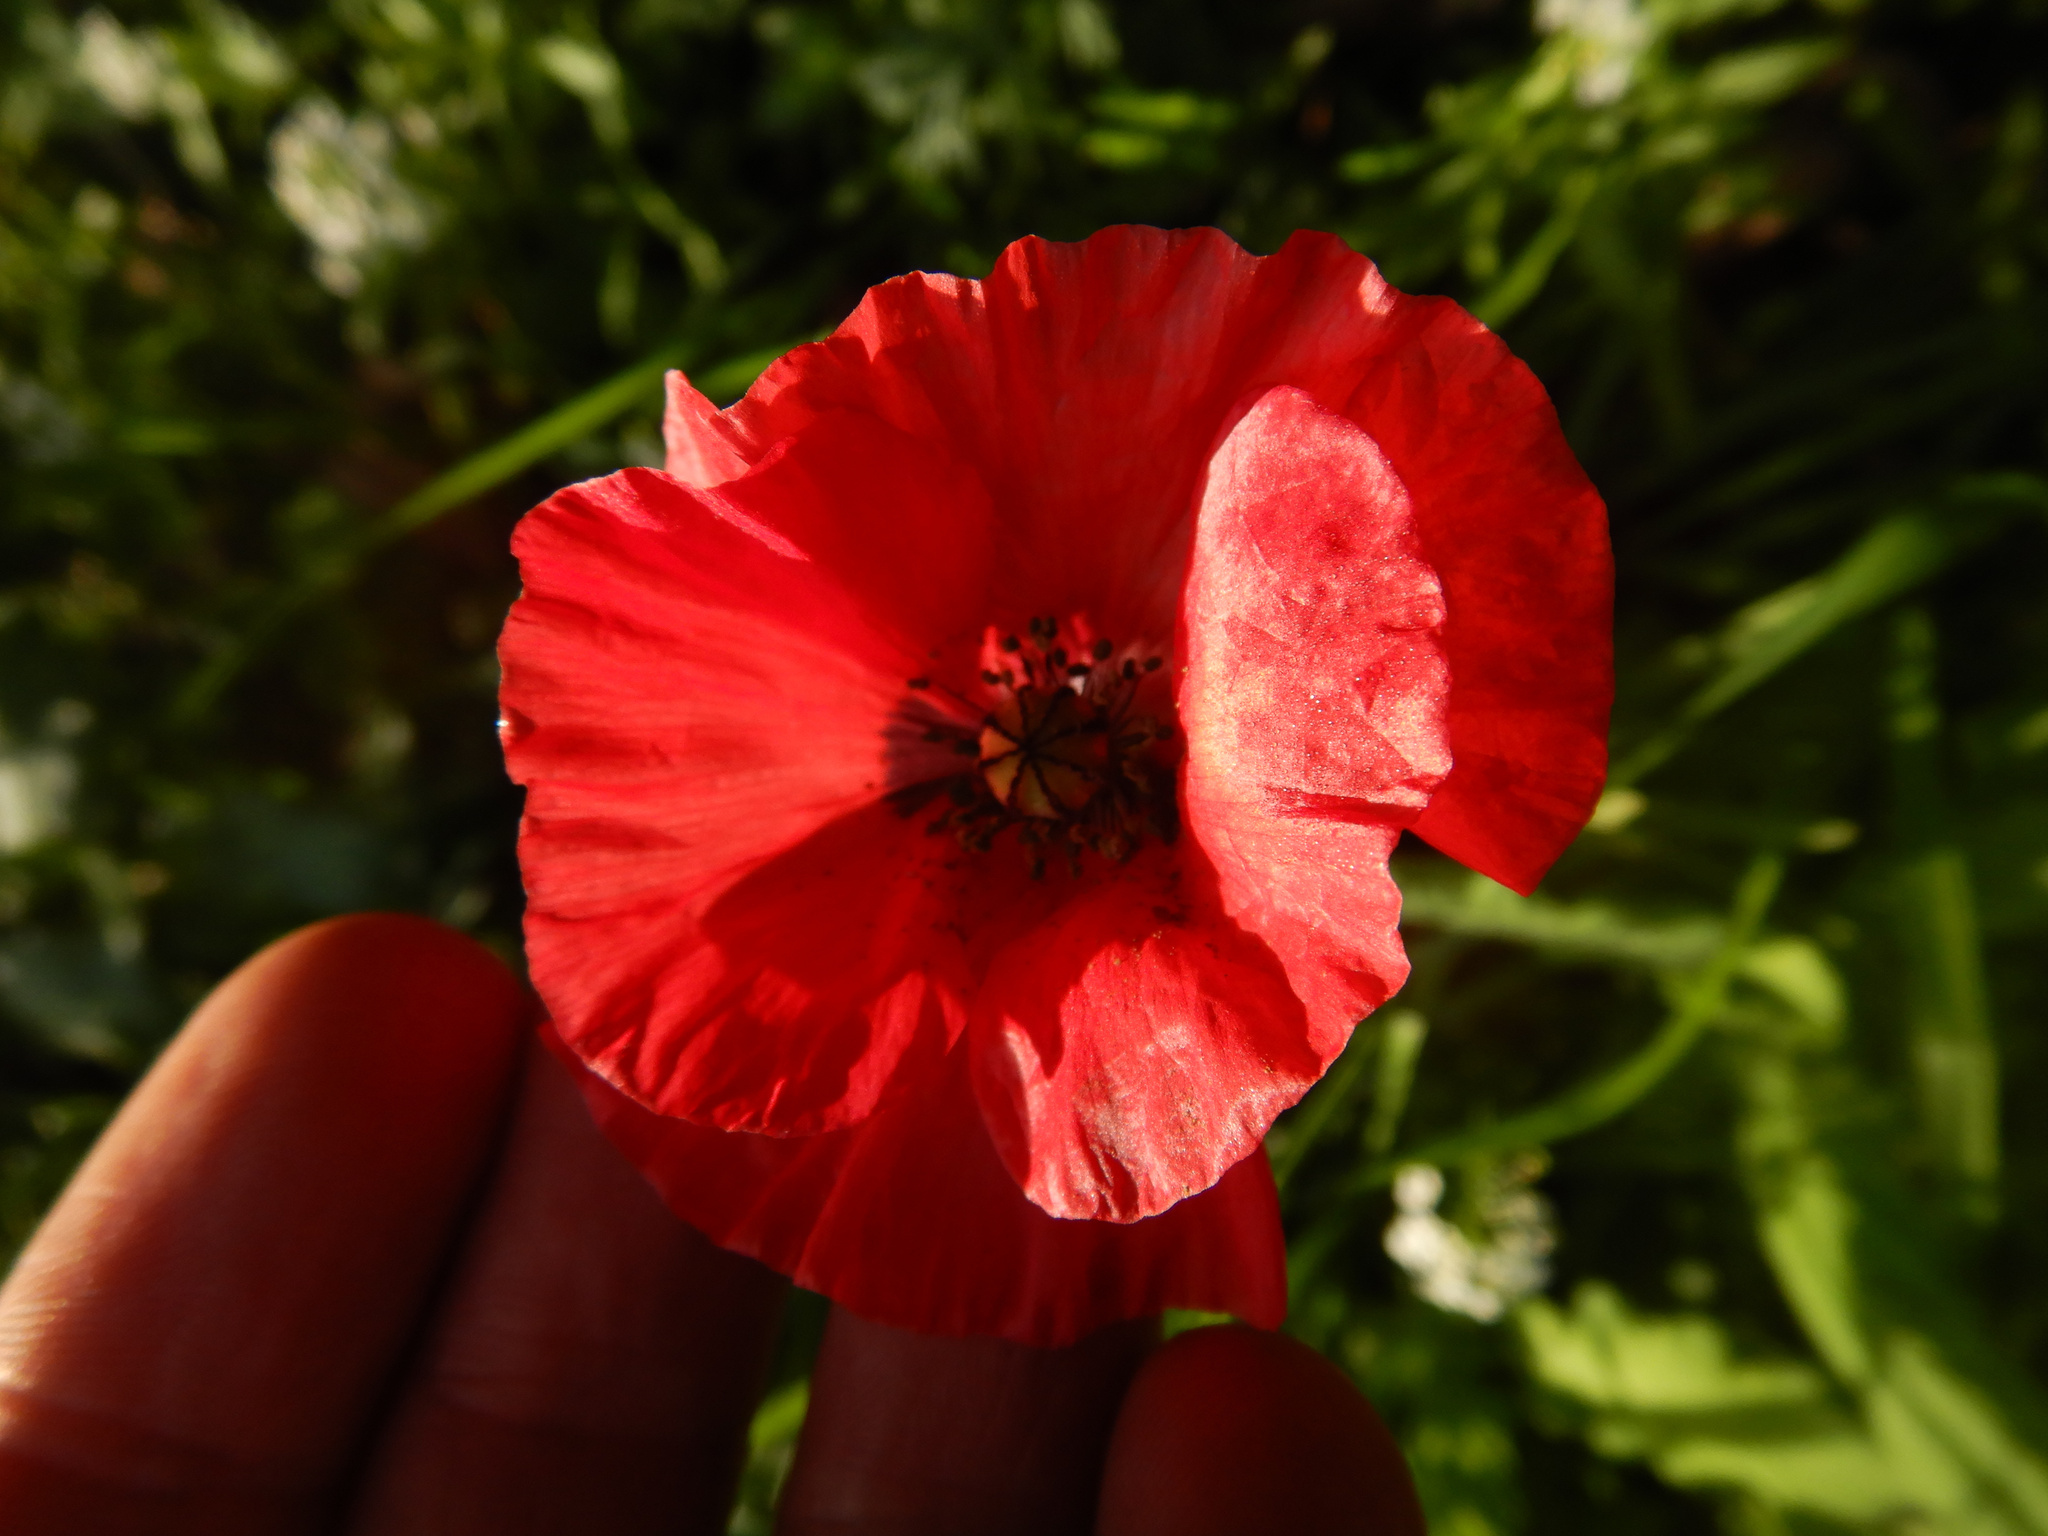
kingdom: Plantae
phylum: Tracheophyta
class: Magnoliopsida
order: Ranunculales
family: Papaveraceae
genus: Papaver
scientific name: Papaver rhoeas
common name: Corn poppy
